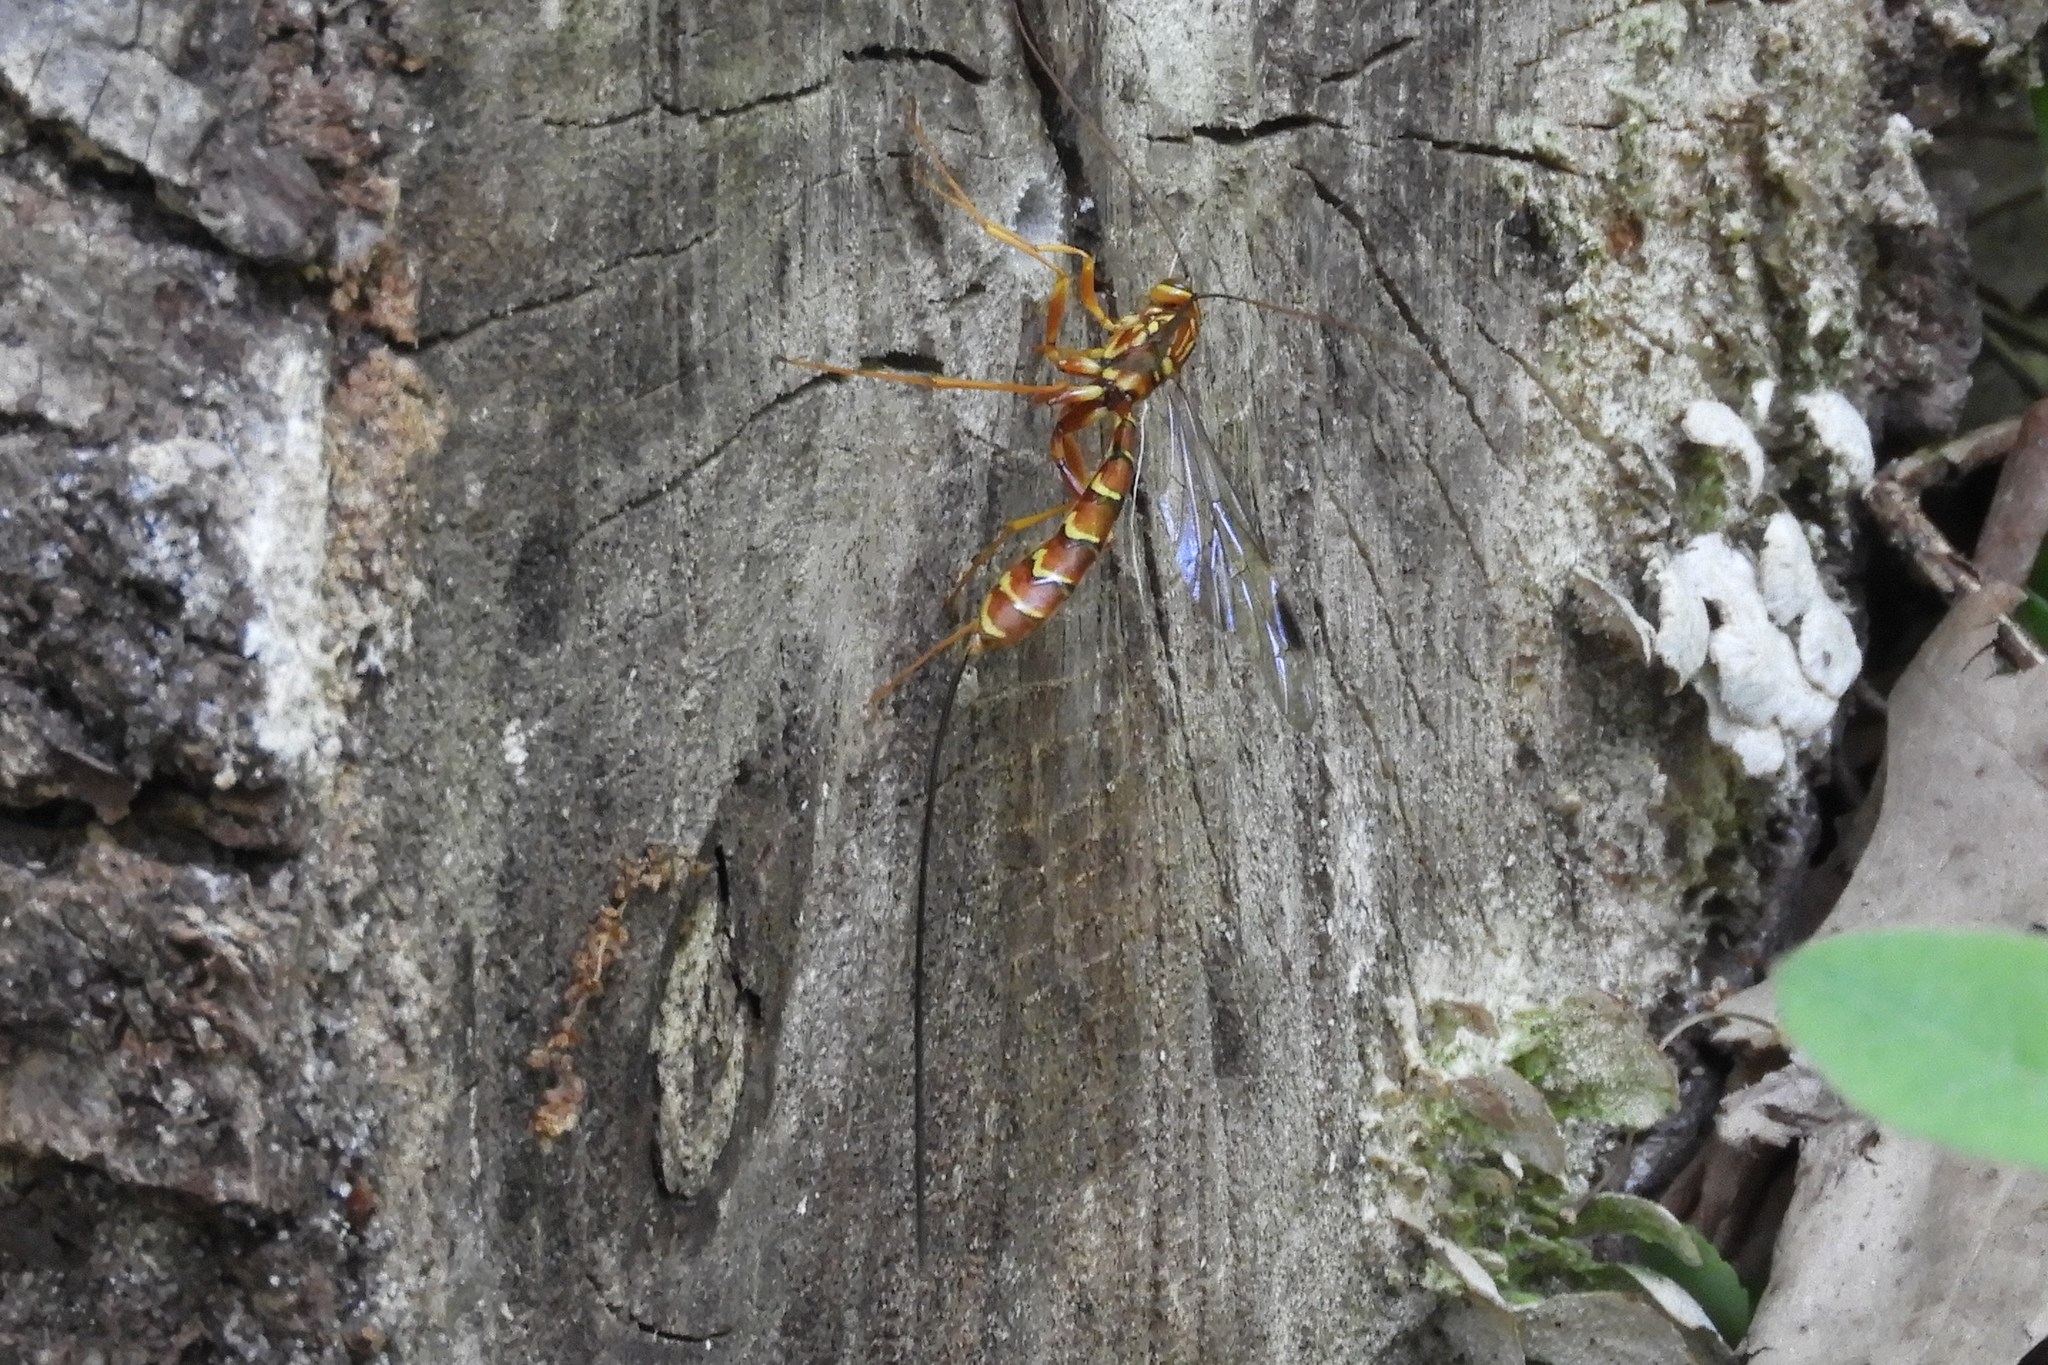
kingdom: Animalia
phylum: Arthropoda
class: Insecta
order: Hymenoptera
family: Ichneumonidae
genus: Megarhyssa
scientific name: Megarhyssa greenei
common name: Greene's giant ichneumonid wasp
